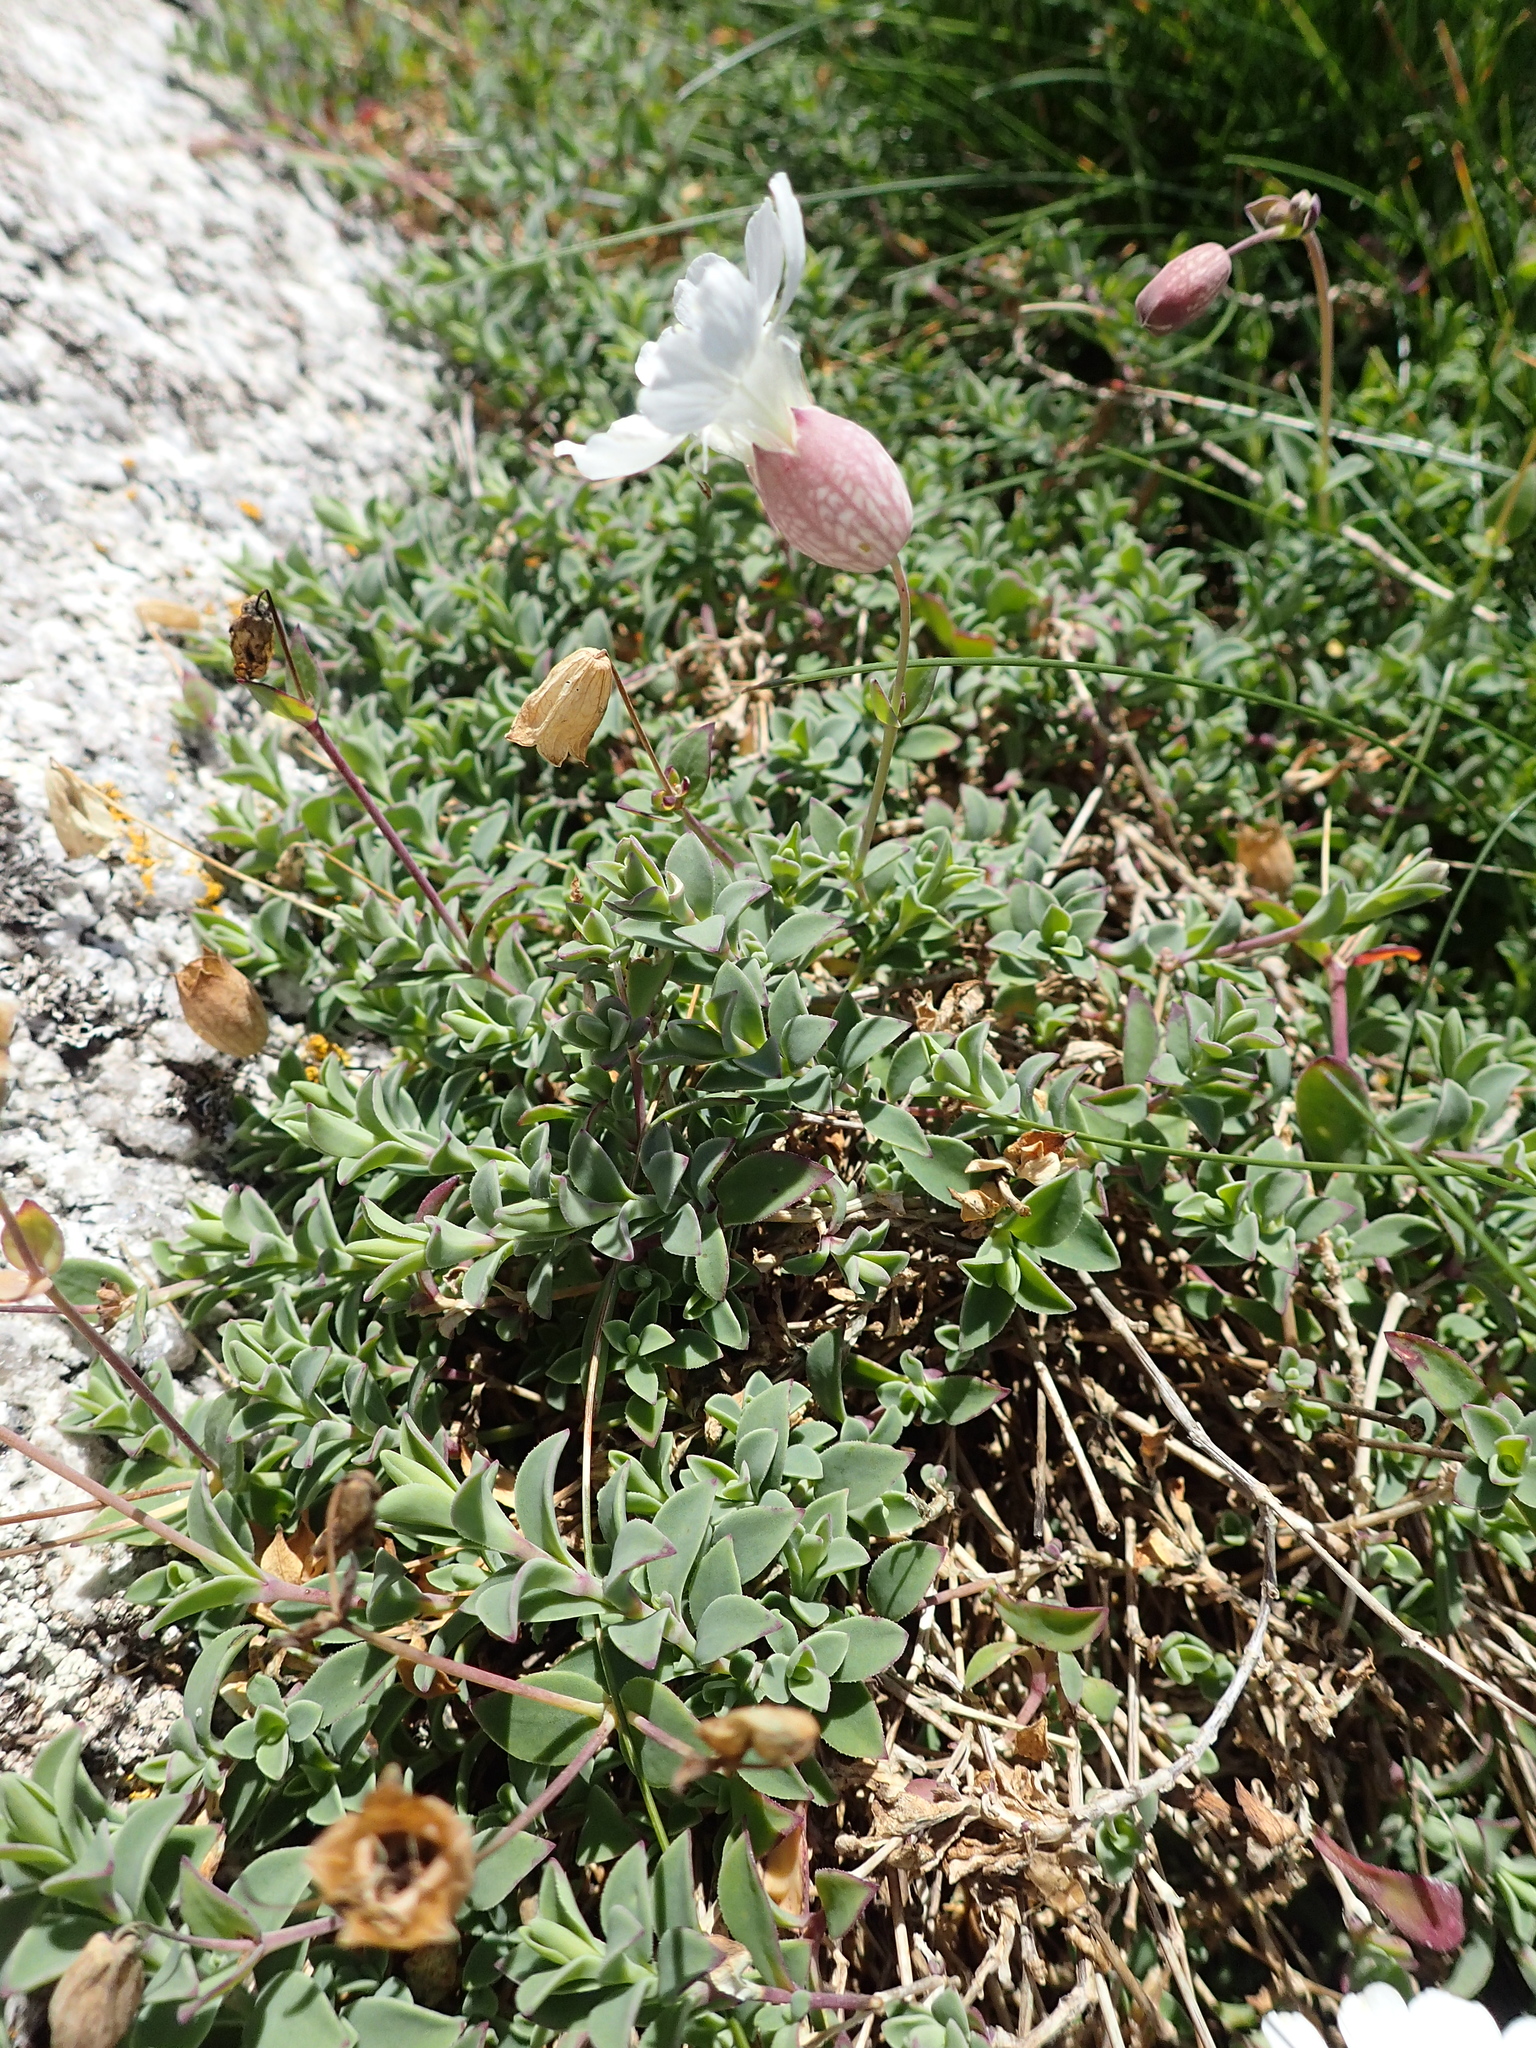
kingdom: Plantae
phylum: Tracheophyta
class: Magnoliopsida
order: Caryophyllales
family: Caryophyllaceae
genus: Silene
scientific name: Silene vulgaris
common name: Bladder campion
